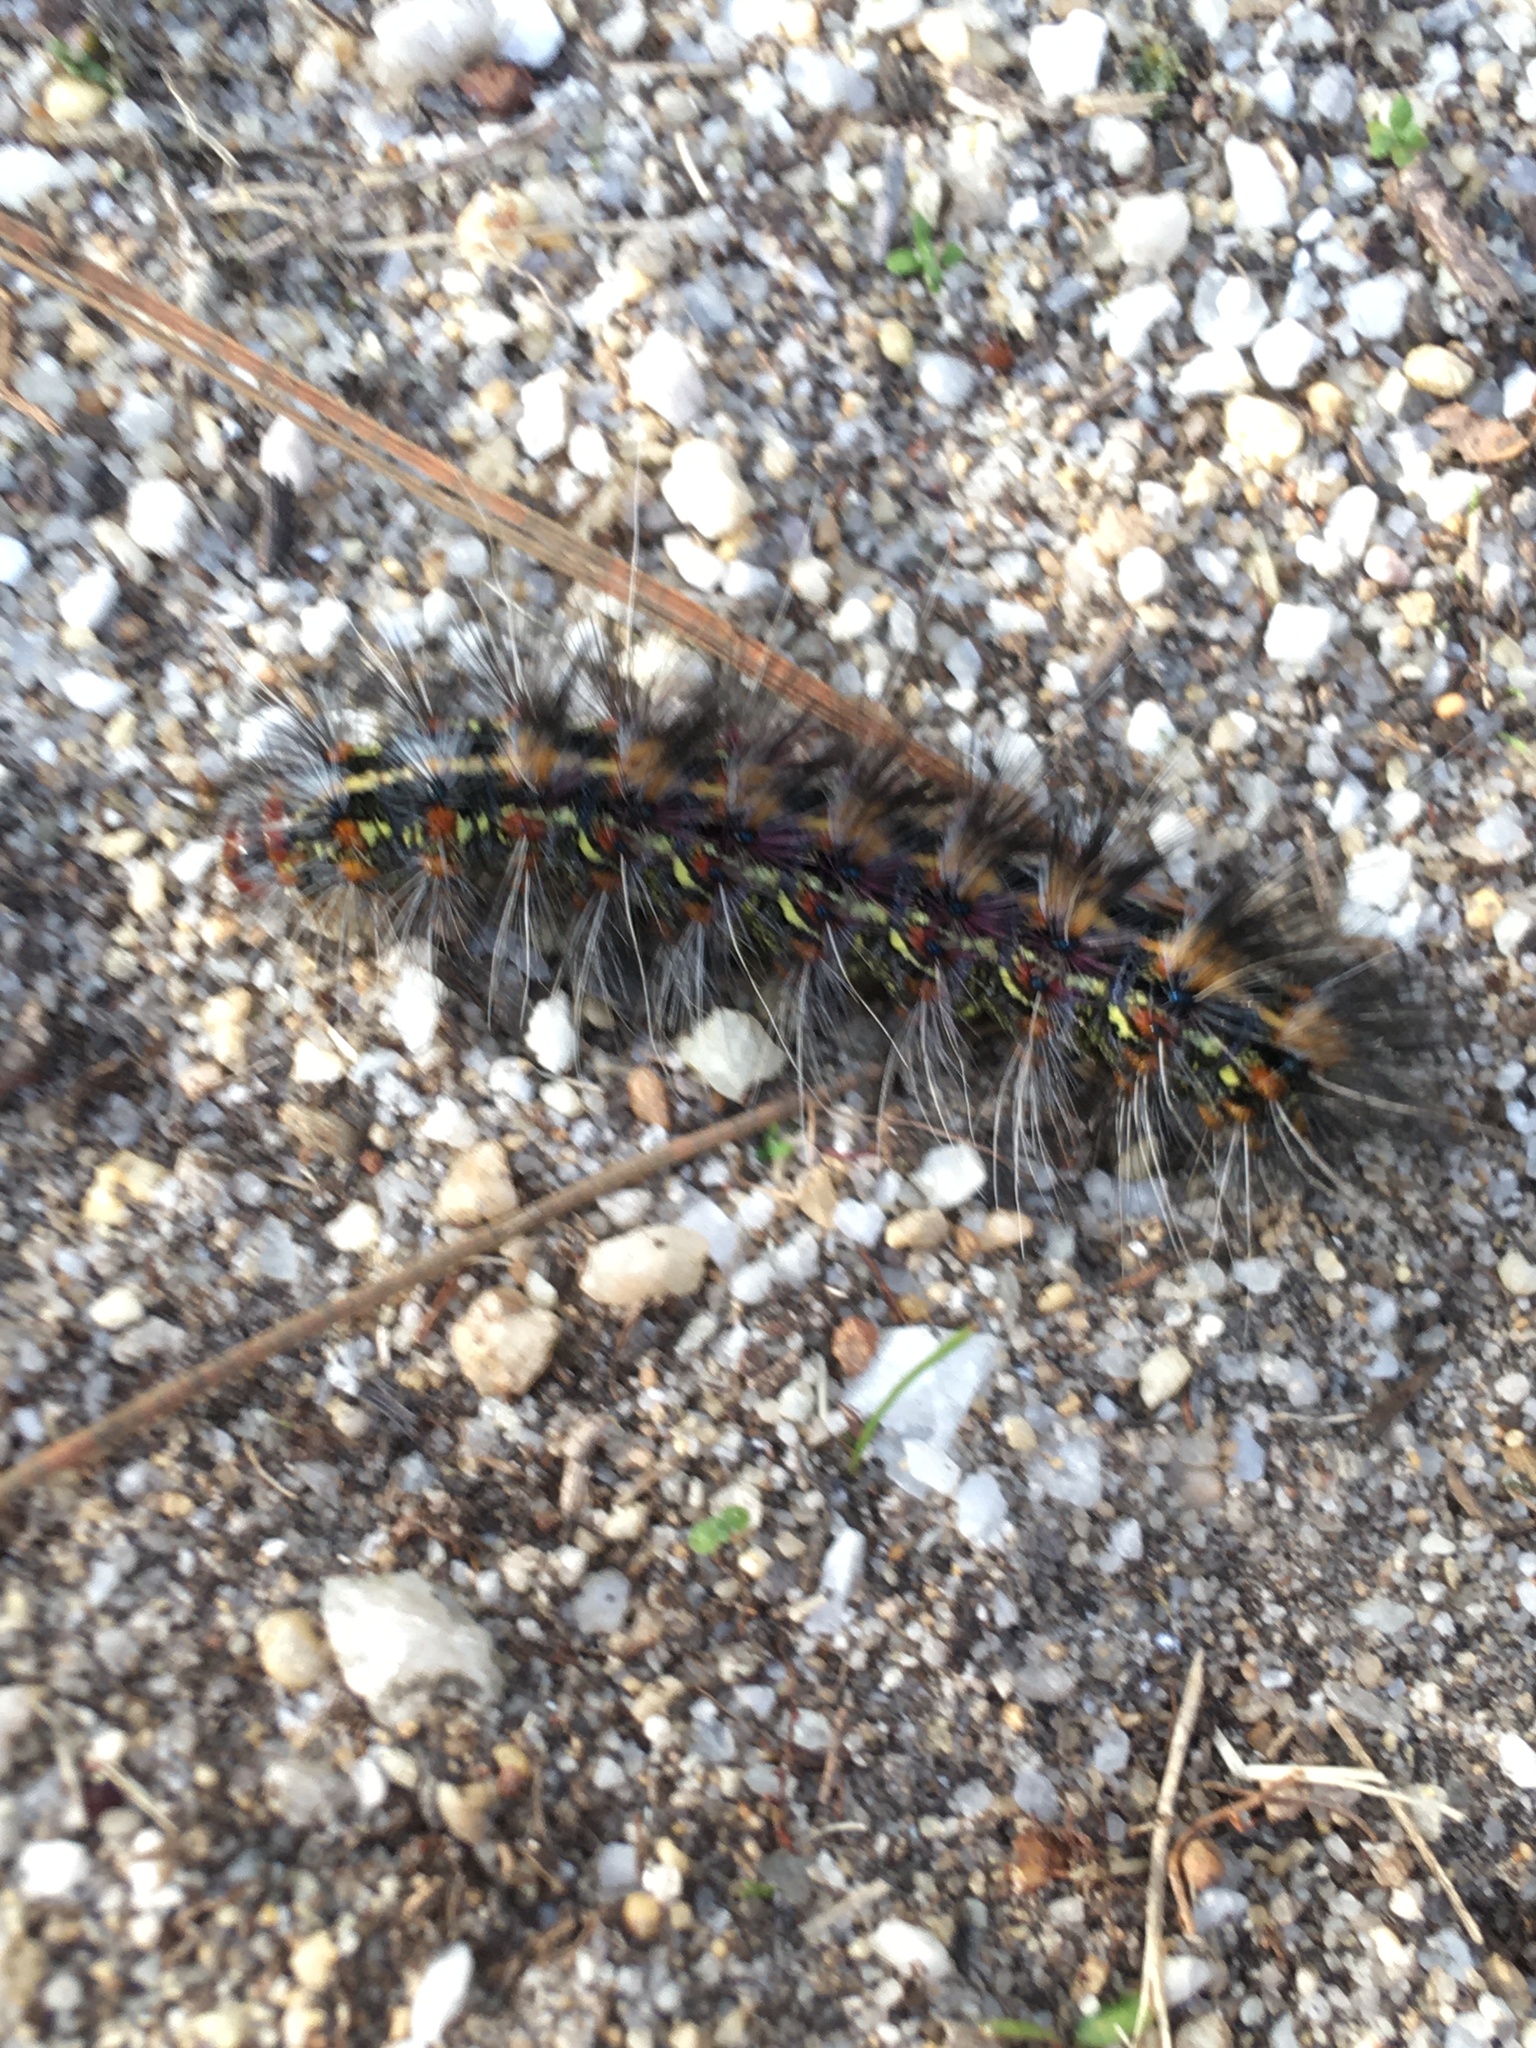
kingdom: Animalia
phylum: Arthropoda
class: Insecta
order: Lepidoptera
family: Erebidae
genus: Paralacydes
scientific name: Paralacydes vocula
